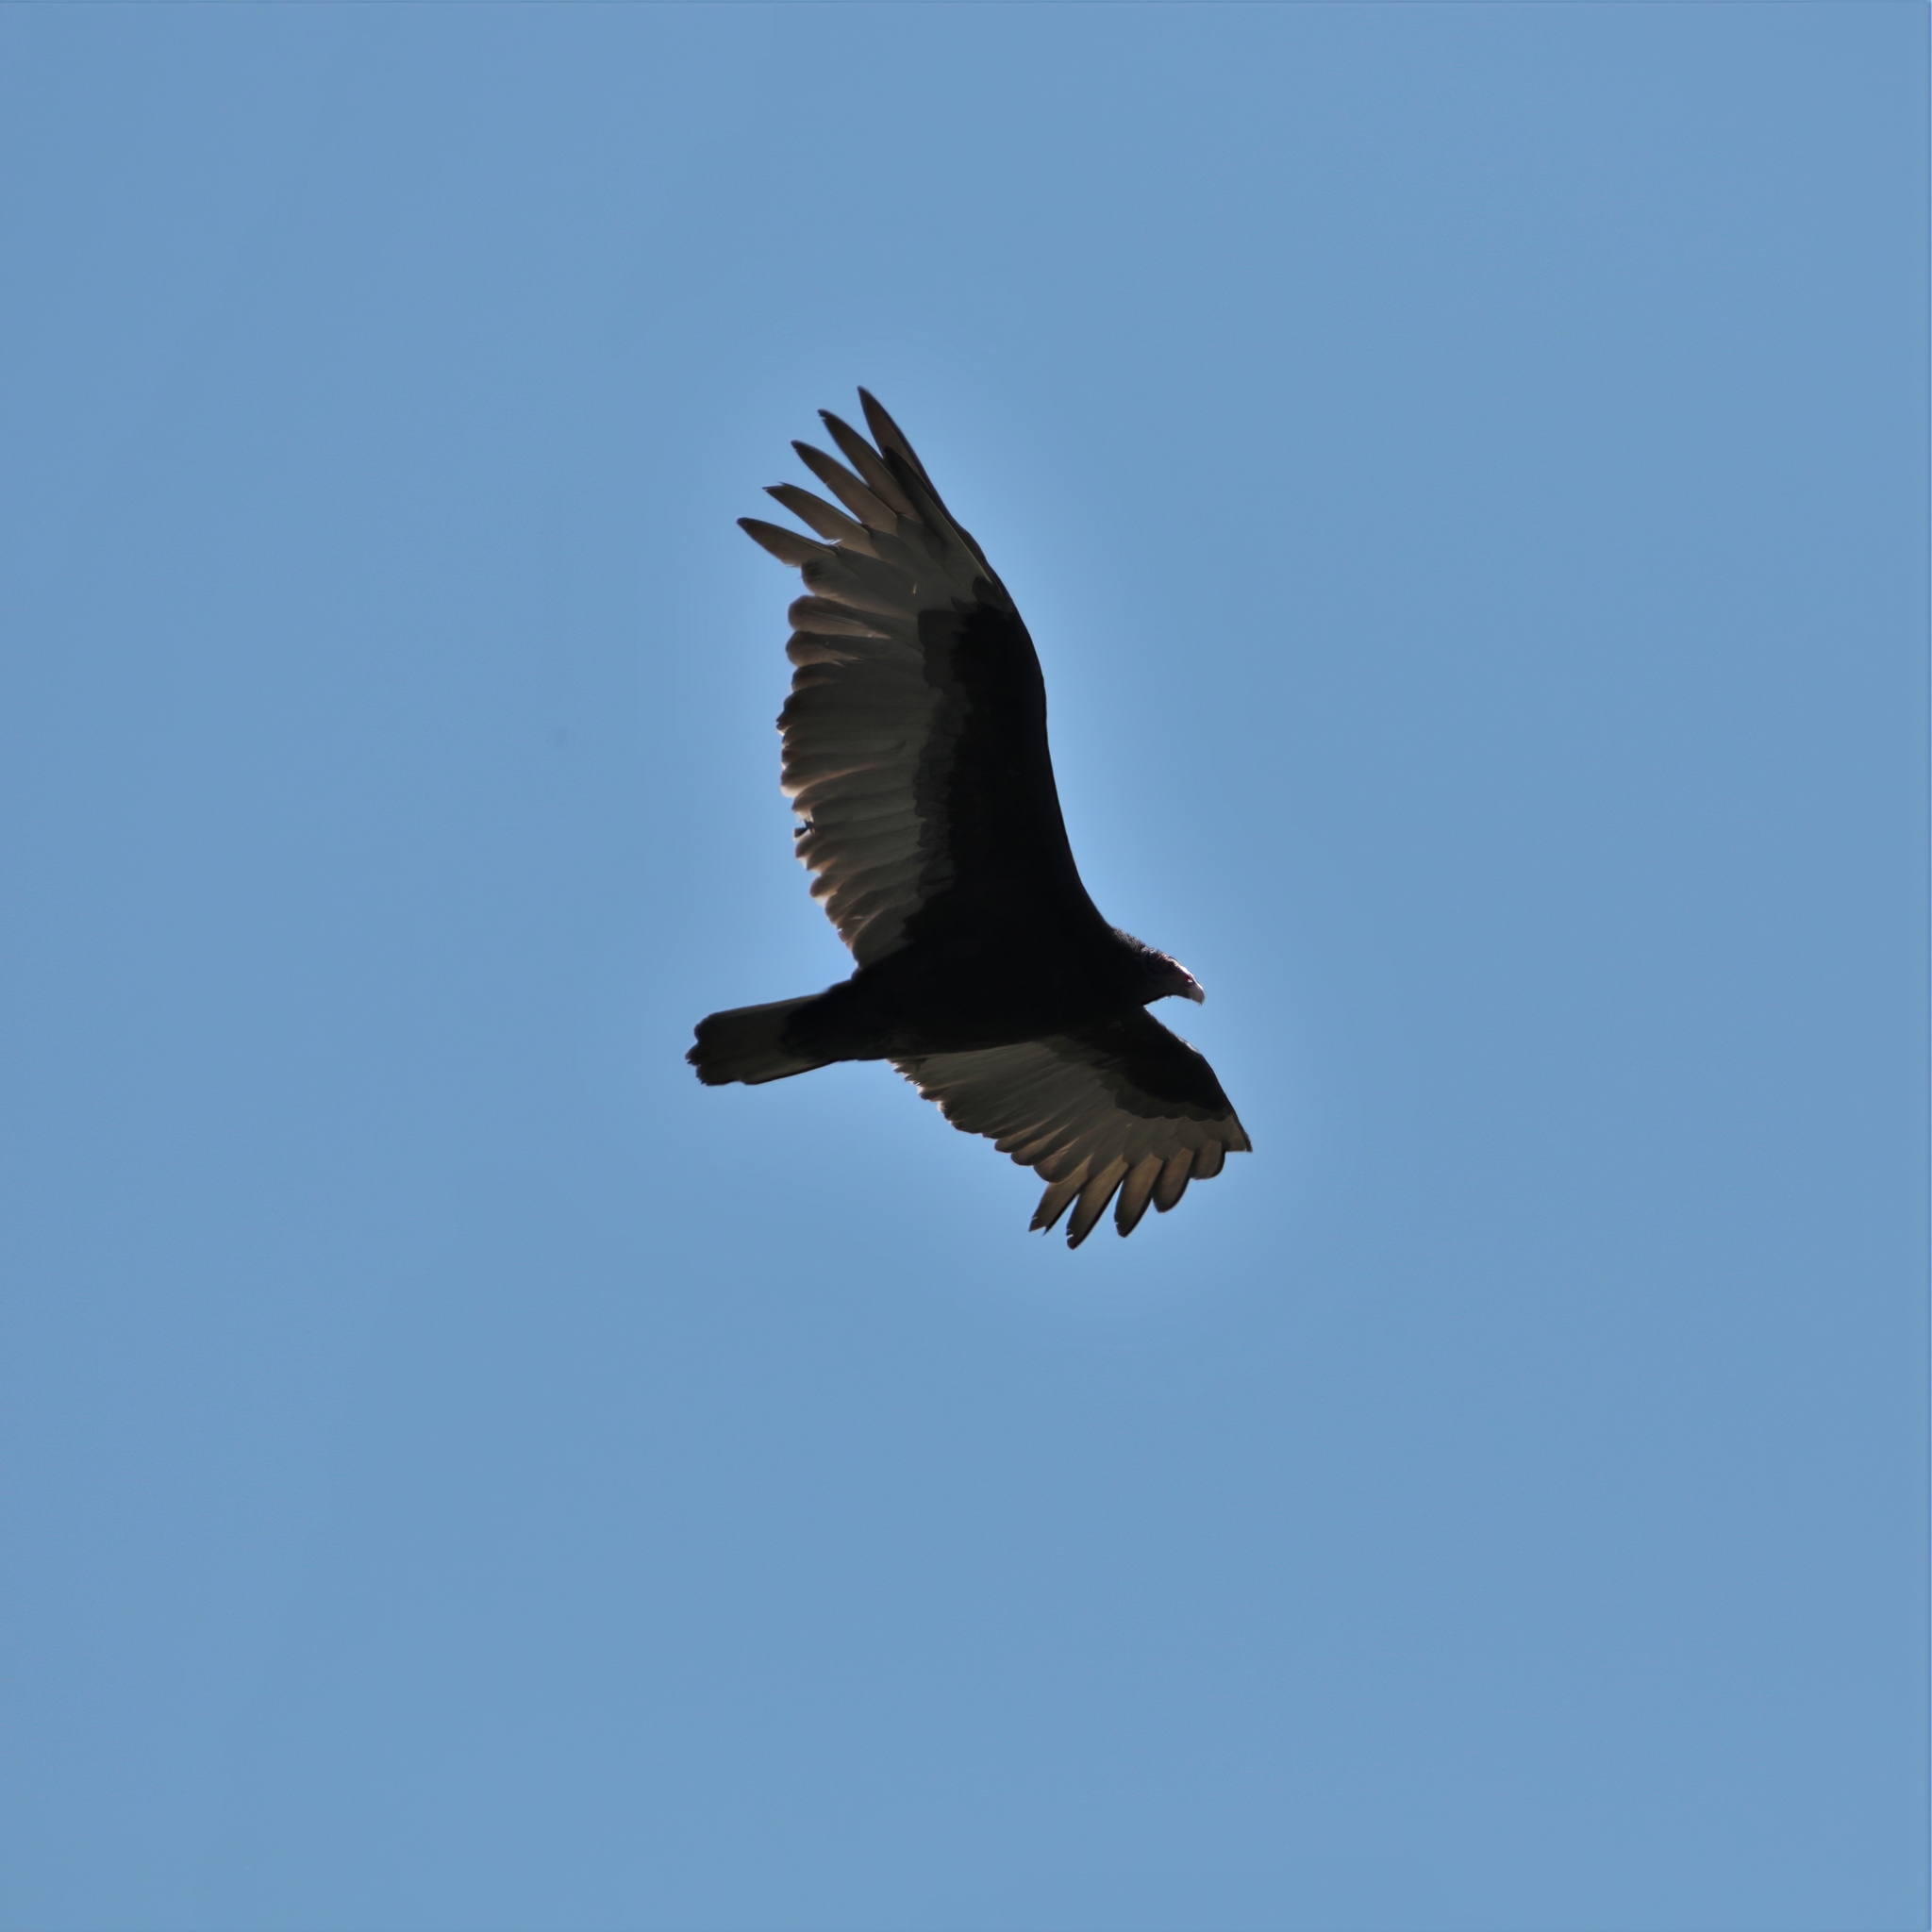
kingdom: Animalia
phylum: Chordata
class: Aves
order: Accipitriformes
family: Cathartidae
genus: Cathartes
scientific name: Cathartes aura
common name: Turkey vulture
